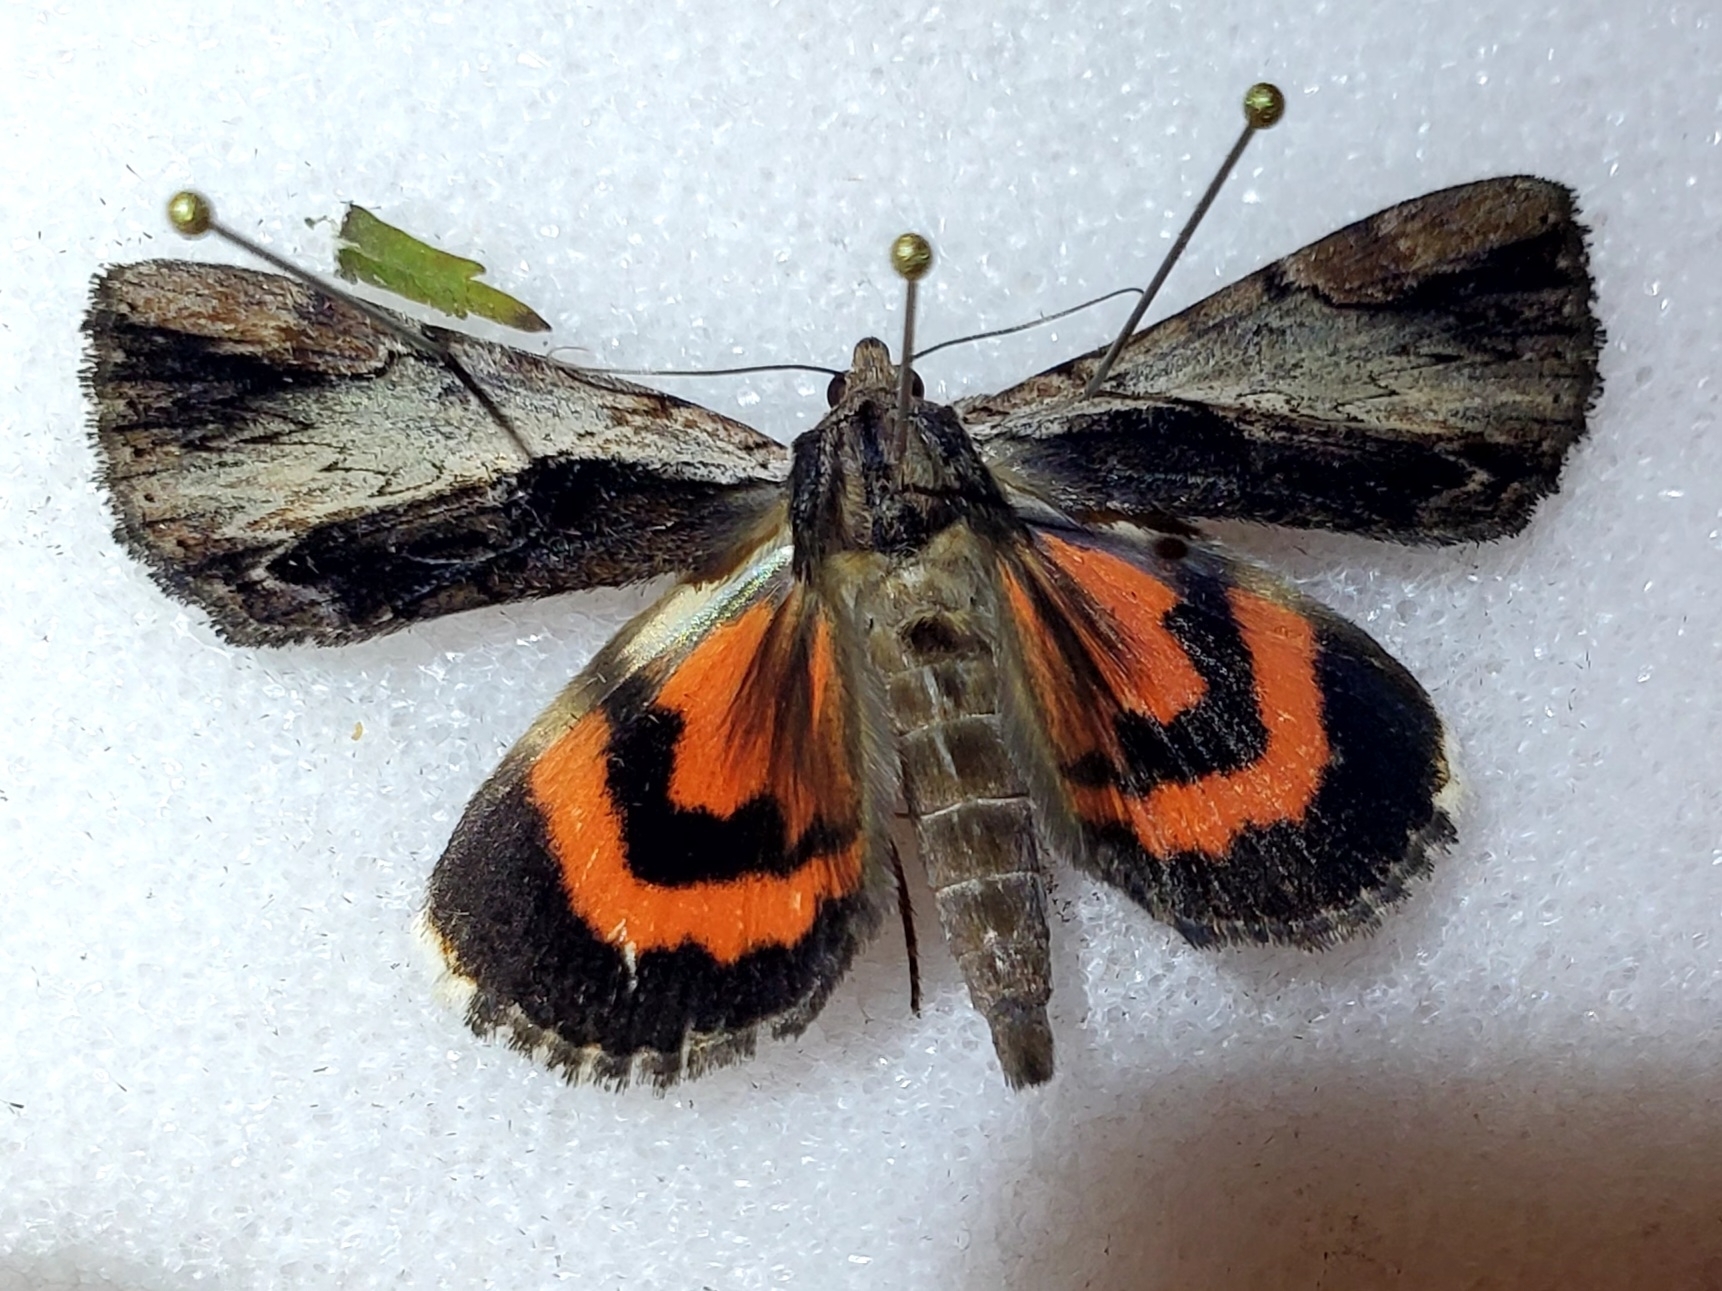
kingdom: Animalia
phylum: Arthropoda
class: Insecta
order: Lepidoptera
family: Erebidae
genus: Catocala
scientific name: Catocala ultronia
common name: Ultronia underwing
